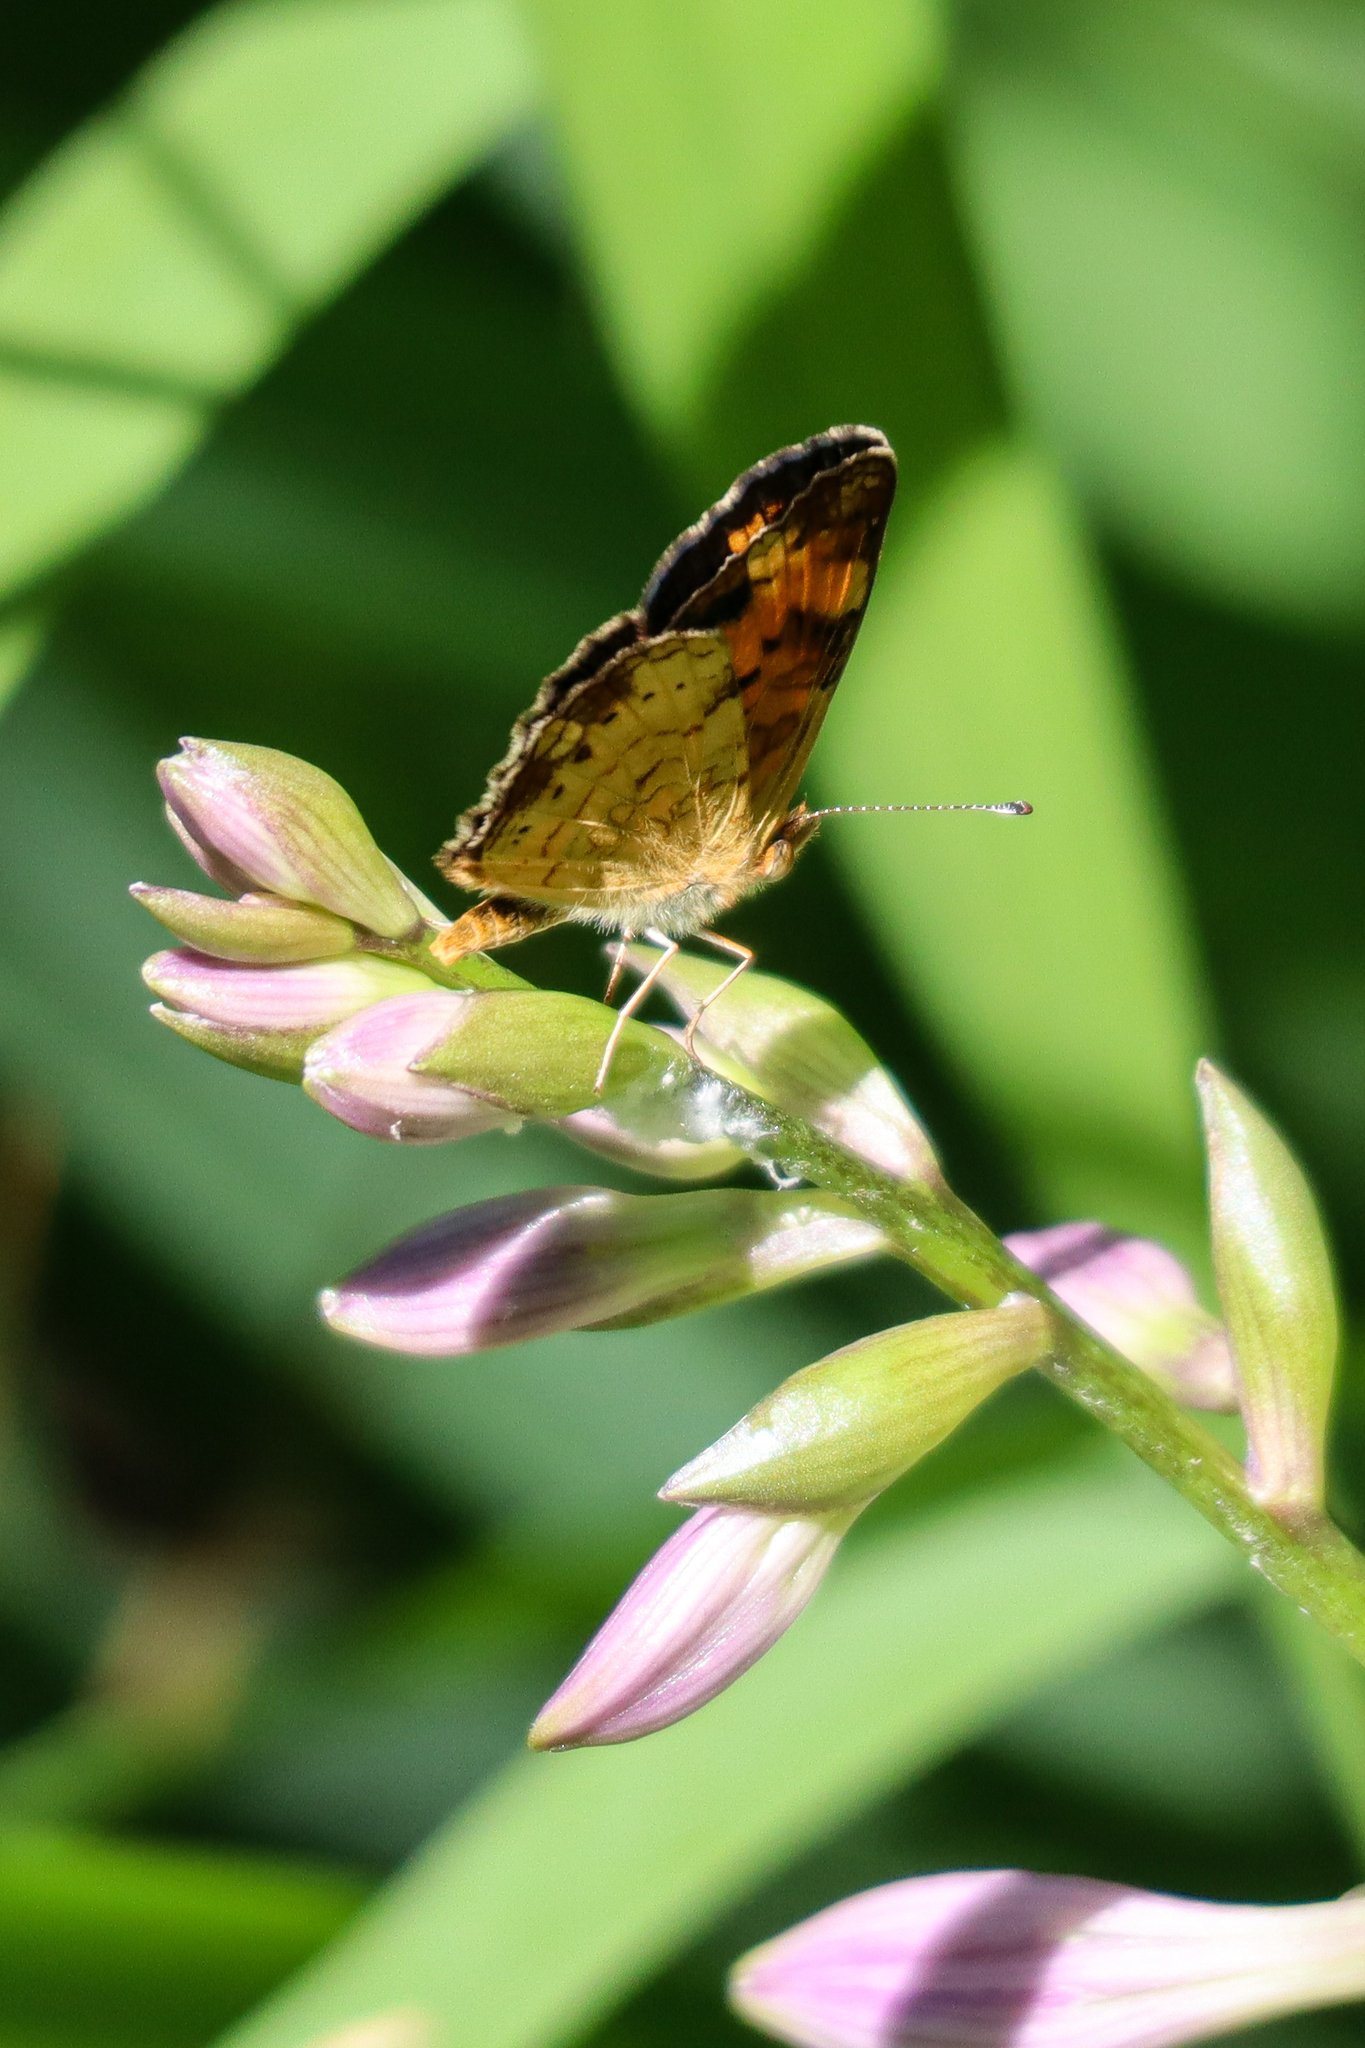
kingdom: Animalia
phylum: Arthropoda
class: Insecta
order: Lepidoptera
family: Nymphalidae
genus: Phyciodes
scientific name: Phyciodes tharos
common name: Pearl crescent
